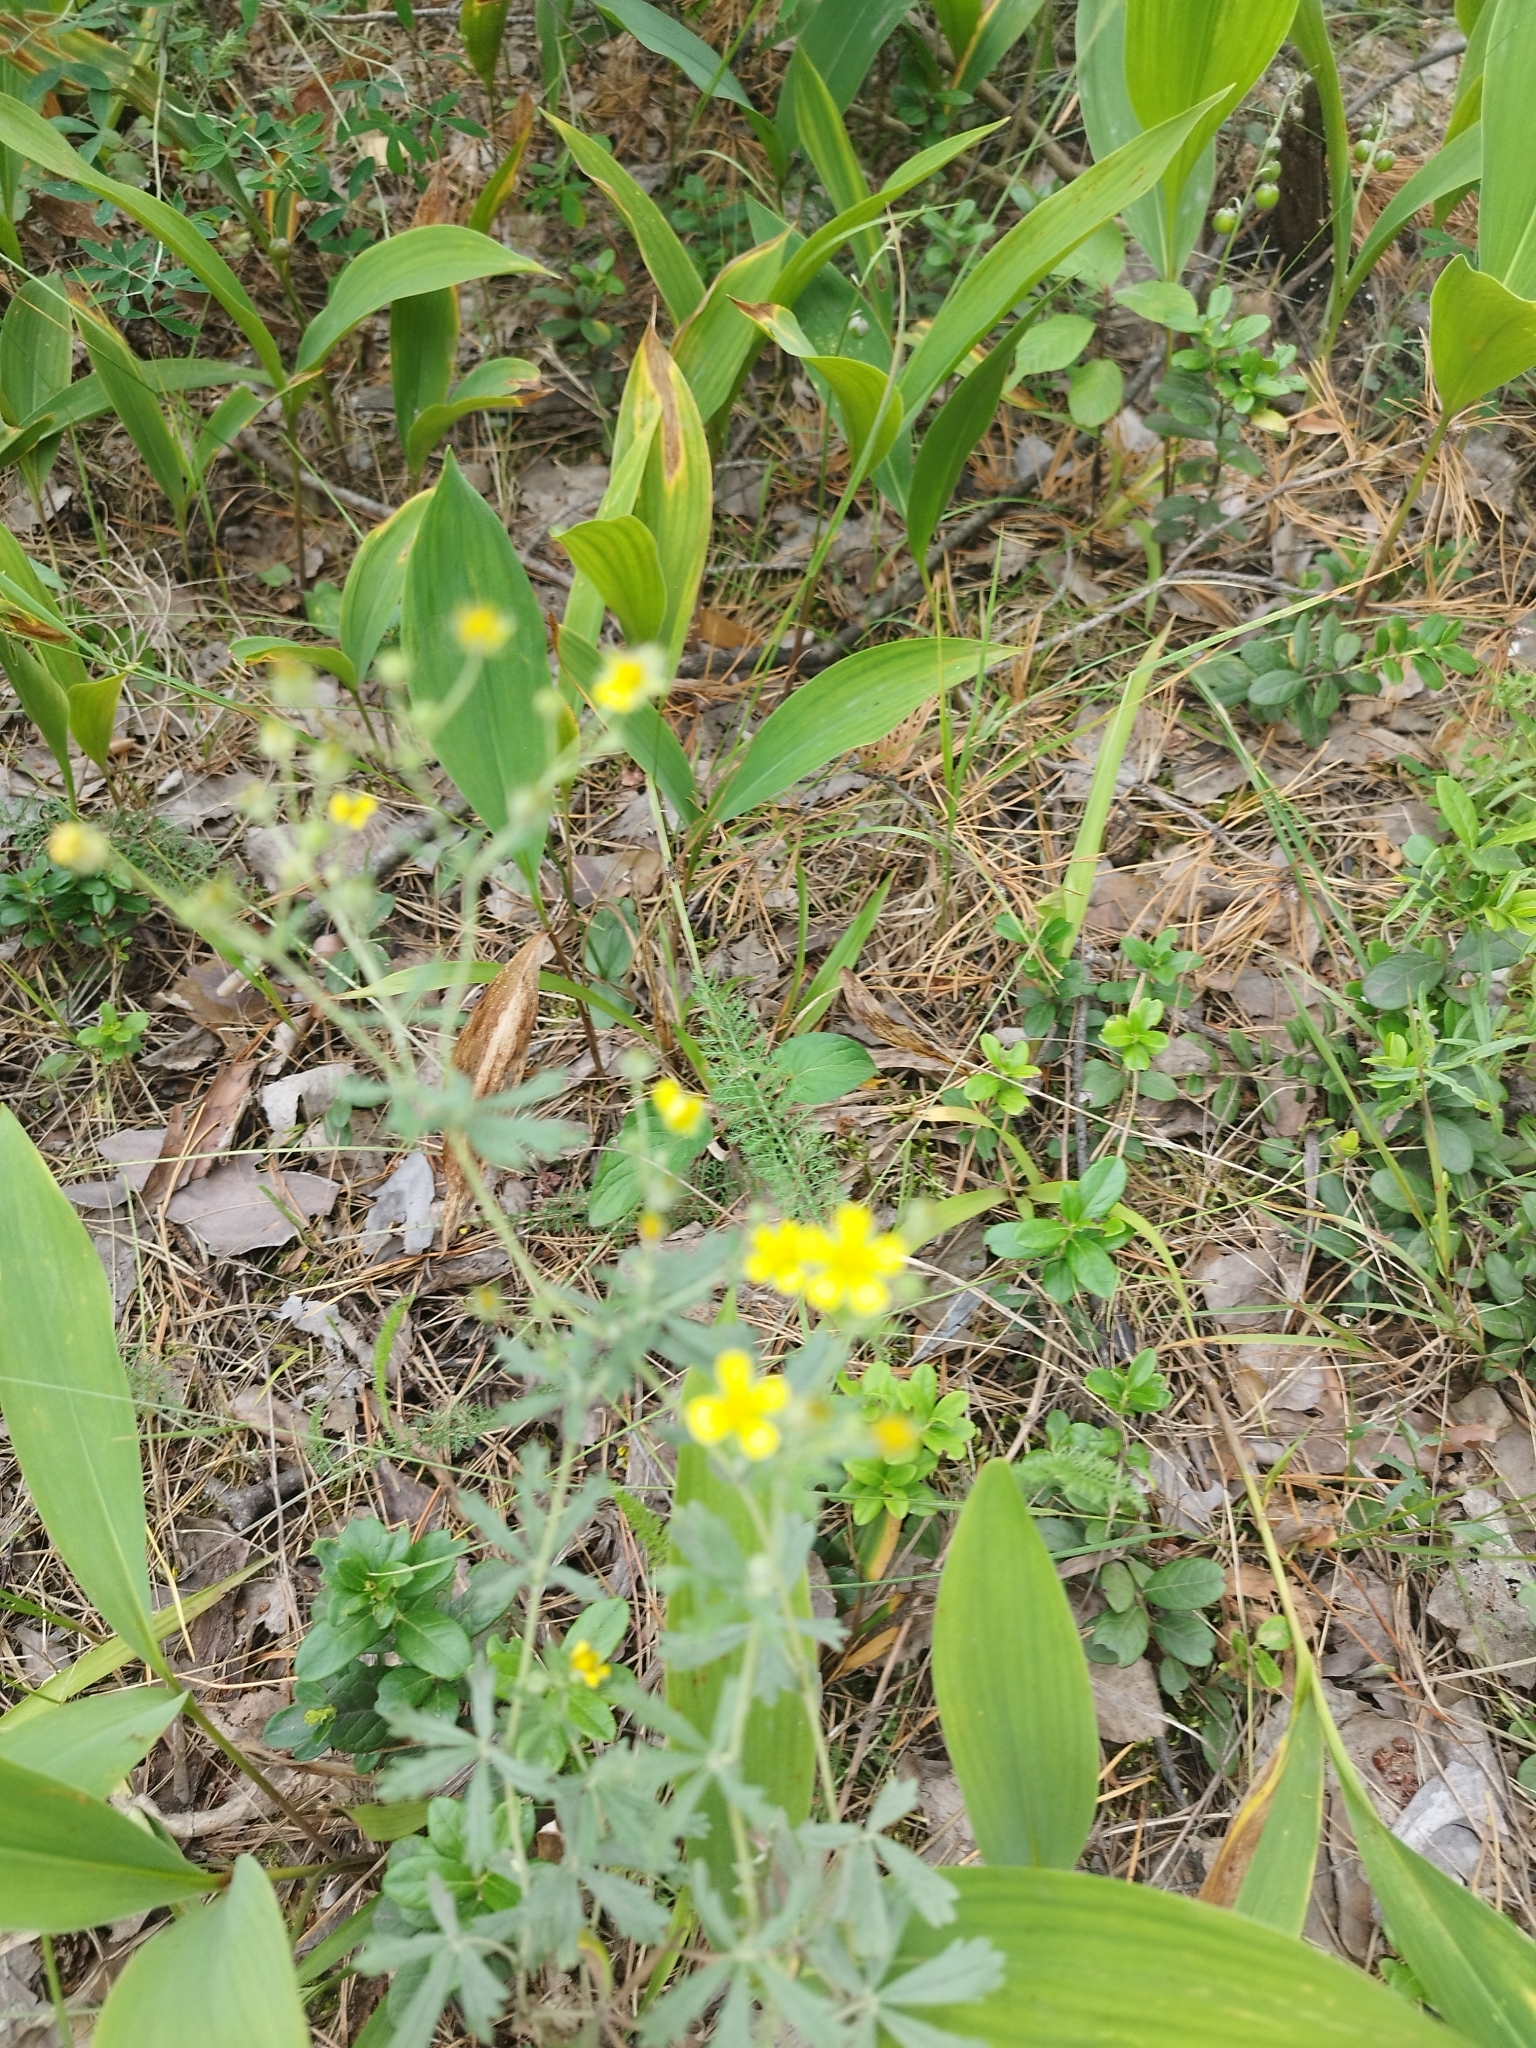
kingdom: Plantae
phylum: Tracheophyta
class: Magnoliopsida
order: Rosales
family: Rosaceae
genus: Potentilla
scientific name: Potentilla argentea
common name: Hoary cinquefoil
